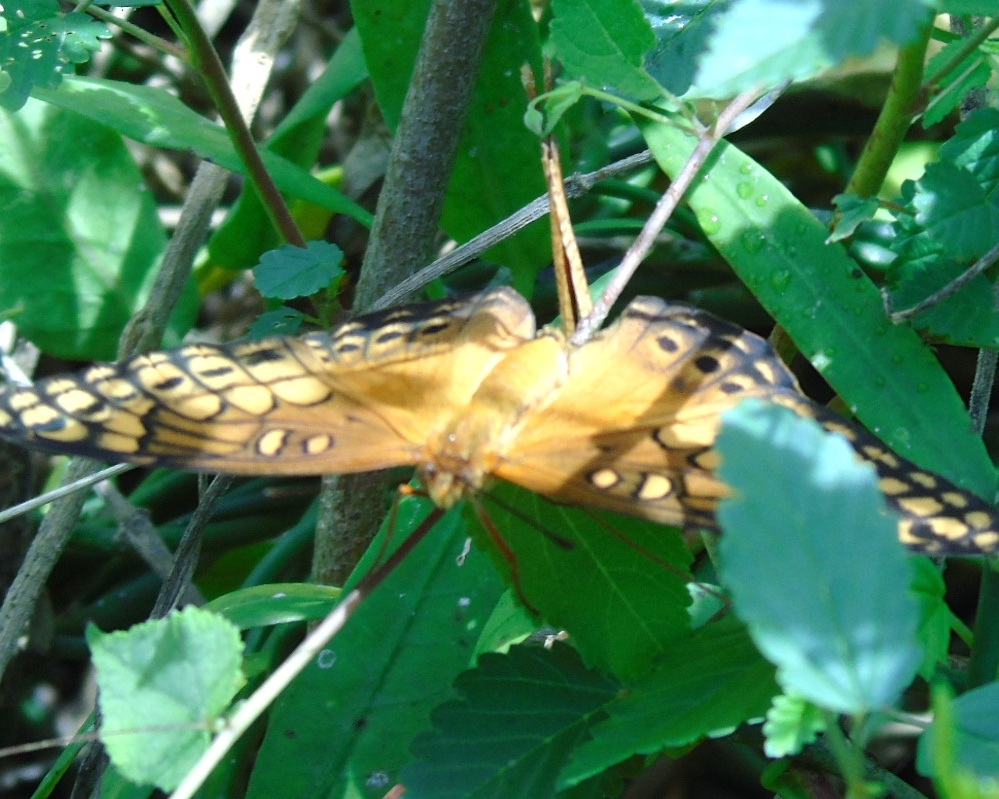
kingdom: Animalia
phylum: Arthropoda
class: Insecta
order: Lepidoptera
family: Nymphalidae
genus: Euptoieta
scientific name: Euptoieta hegesia
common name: Mexican fritillary
